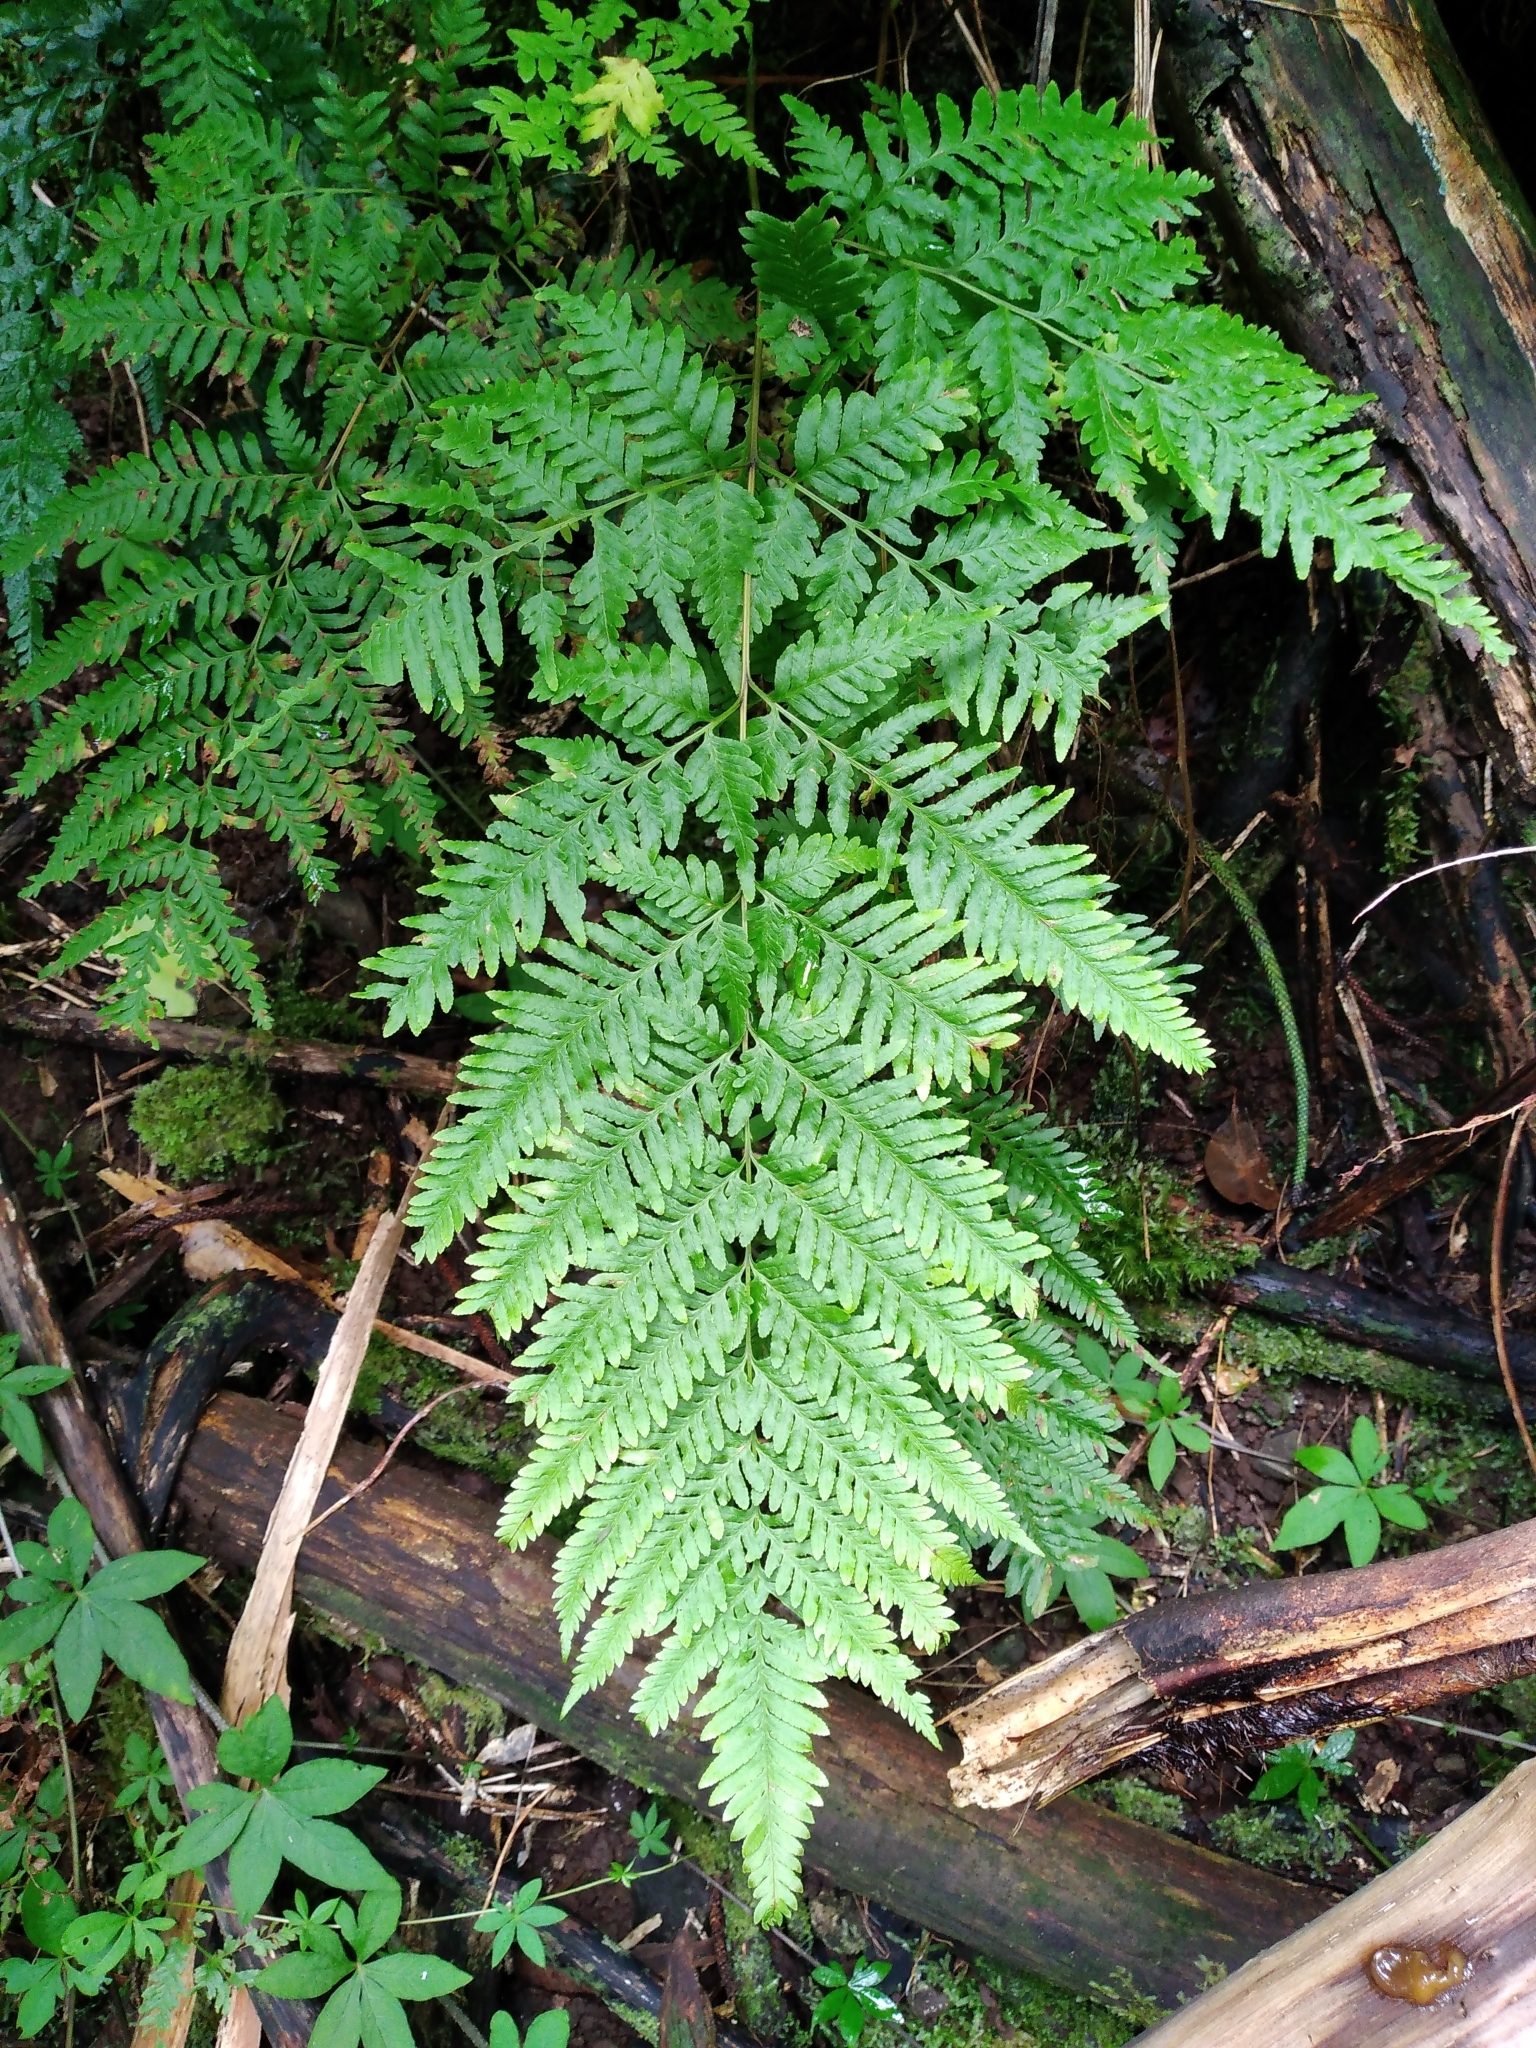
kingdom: Plantae
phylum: Tracheophyta
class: Polypodiopsida
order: Polypodiales
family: Pteridaceae
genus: Pteris
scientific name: Pteris tremula
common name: Australian brake
